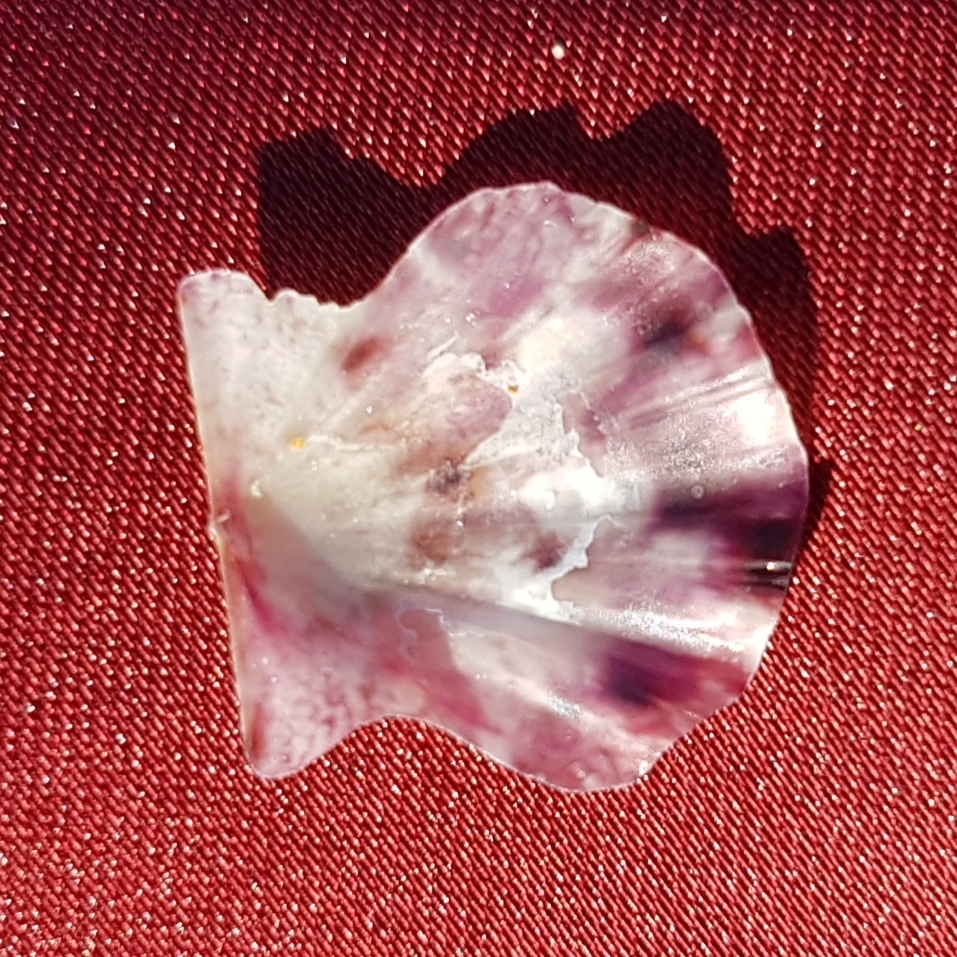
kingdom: Animalia
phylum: Mollusca
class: Bivalvia
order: Pectinida
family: Pectinidae
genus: Flexopecten
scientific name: Flexopecten flexuosus
